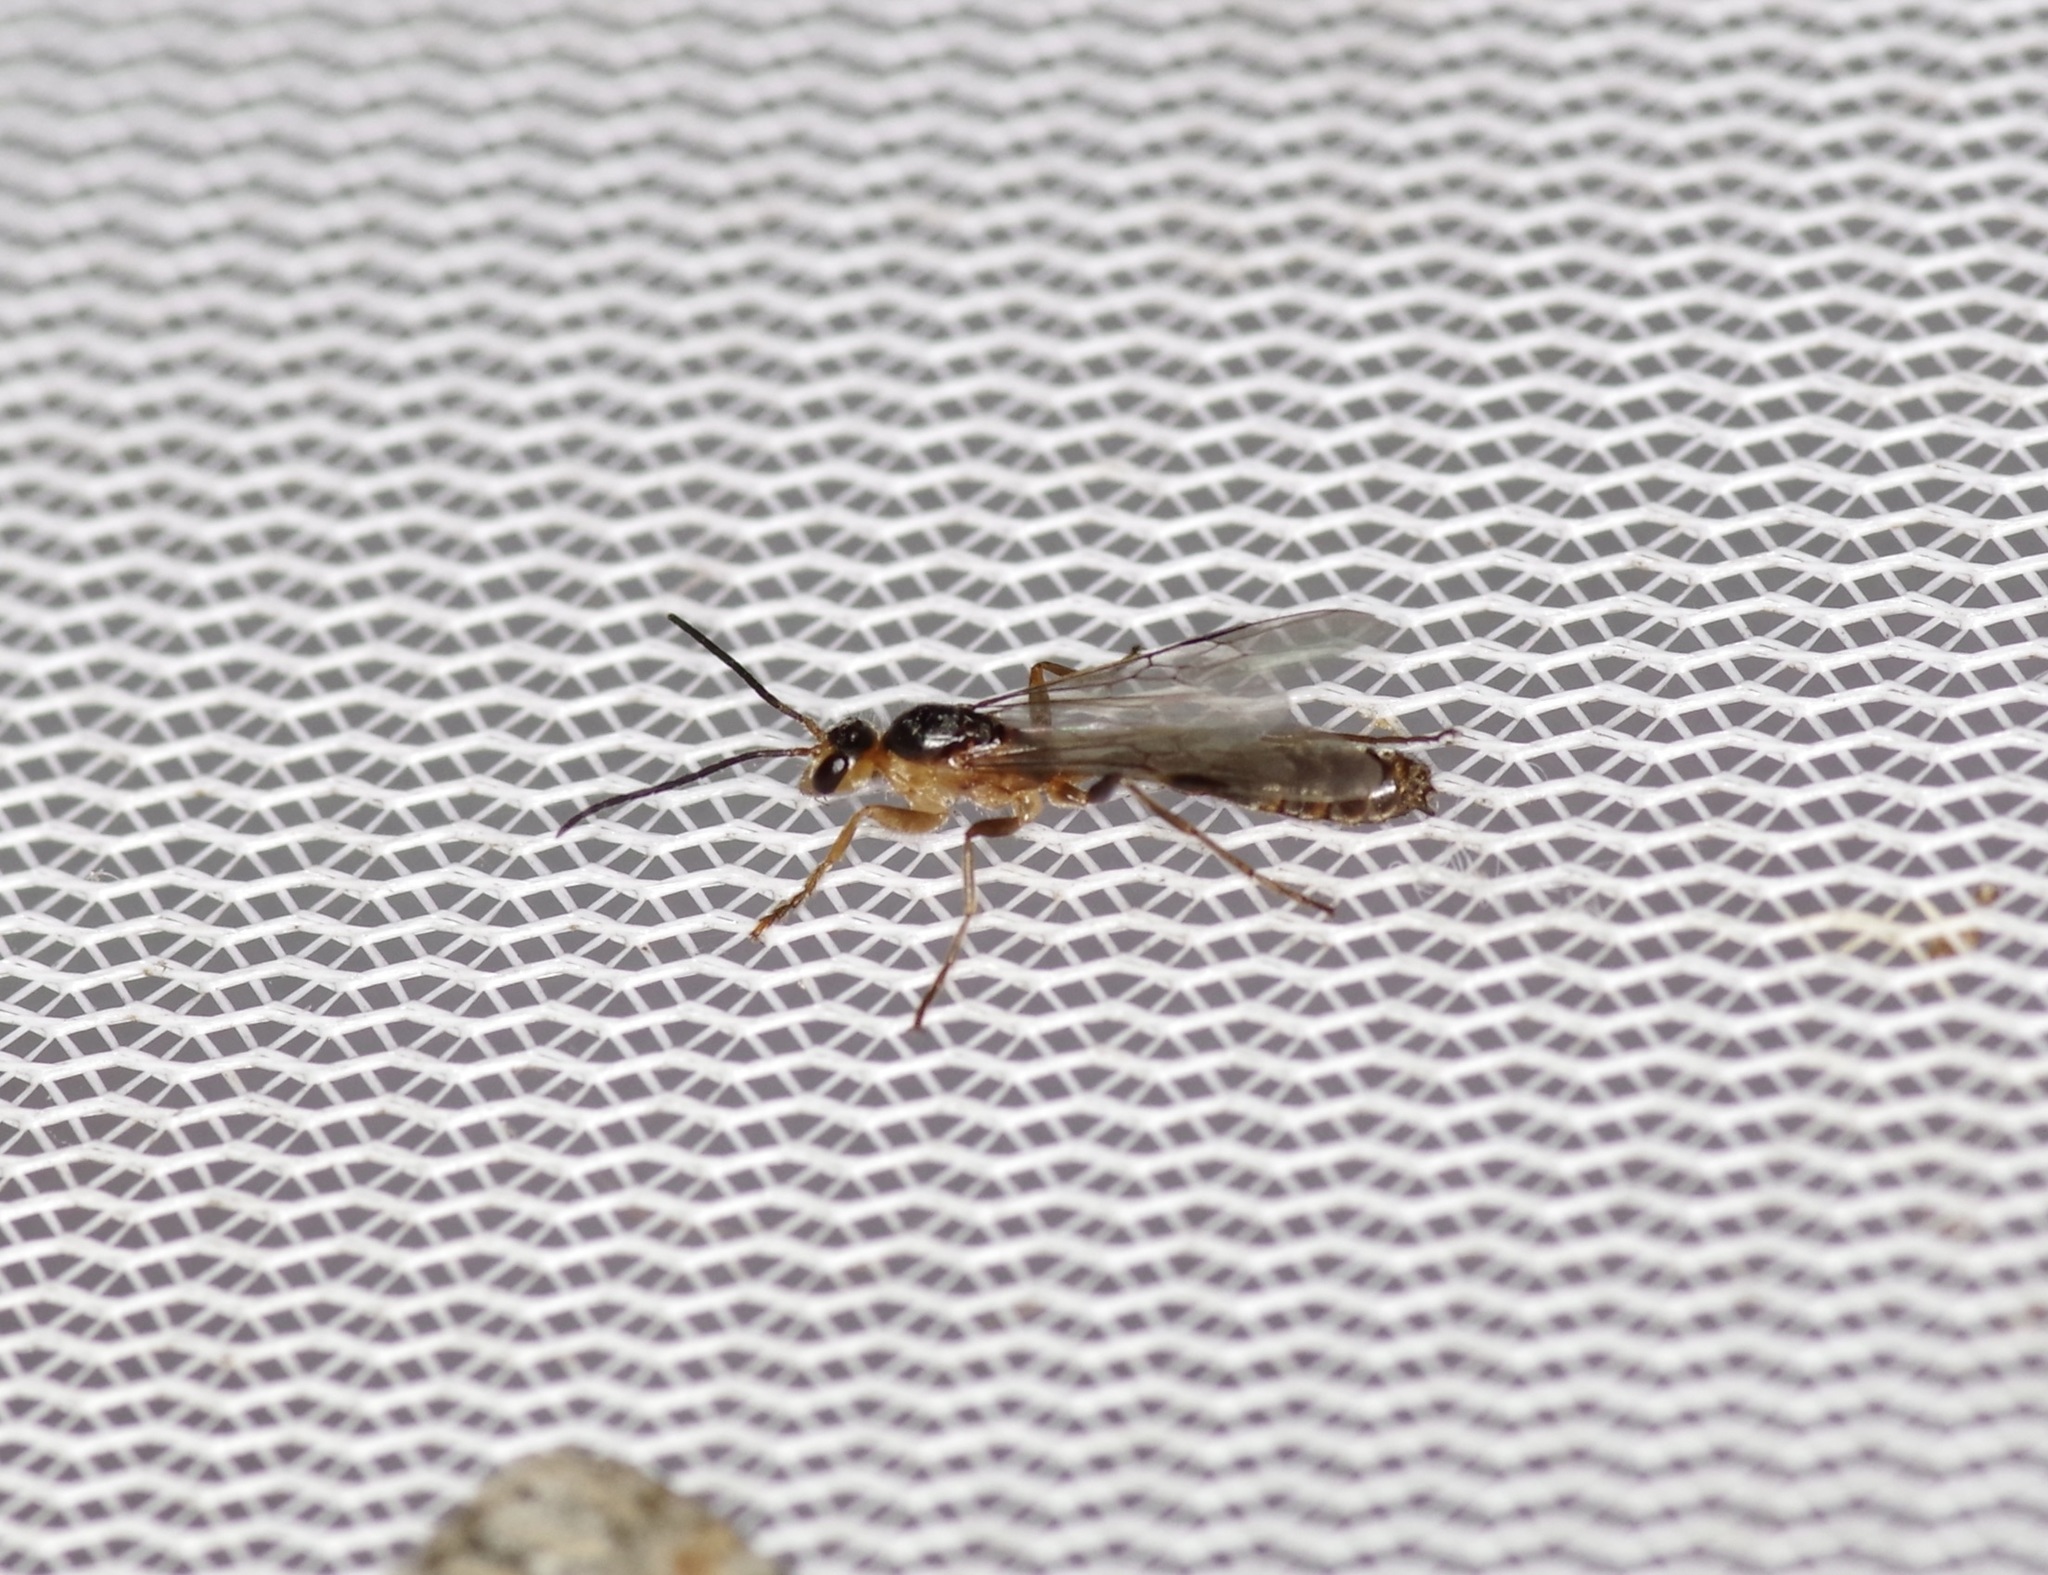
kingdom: Animalia
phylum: Arthropoda
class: Insecta
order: Hymenoptera
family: Formicidae
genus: Pseudomyrmex
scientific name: Pseudomyrmex gracilis
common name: Graceful twig ant
